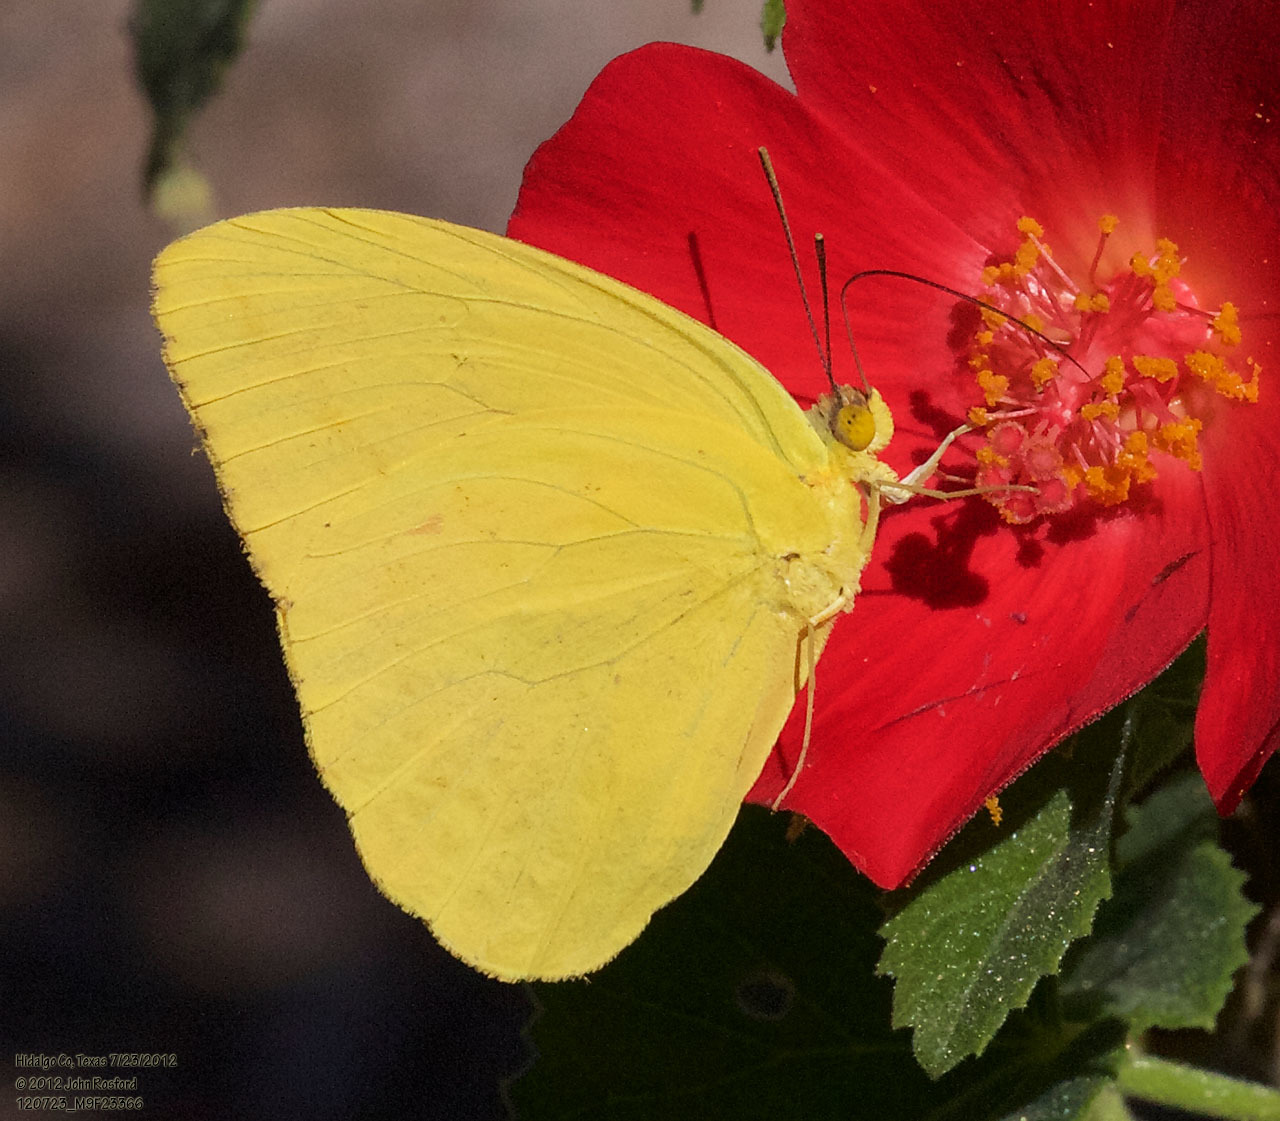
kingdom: Animalia
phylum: Arthropoda
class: Insecta
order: Lepidoptera
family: Pieridae
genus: Phoebis
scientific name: Phoebis agarithe
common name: Large orange sulphur
